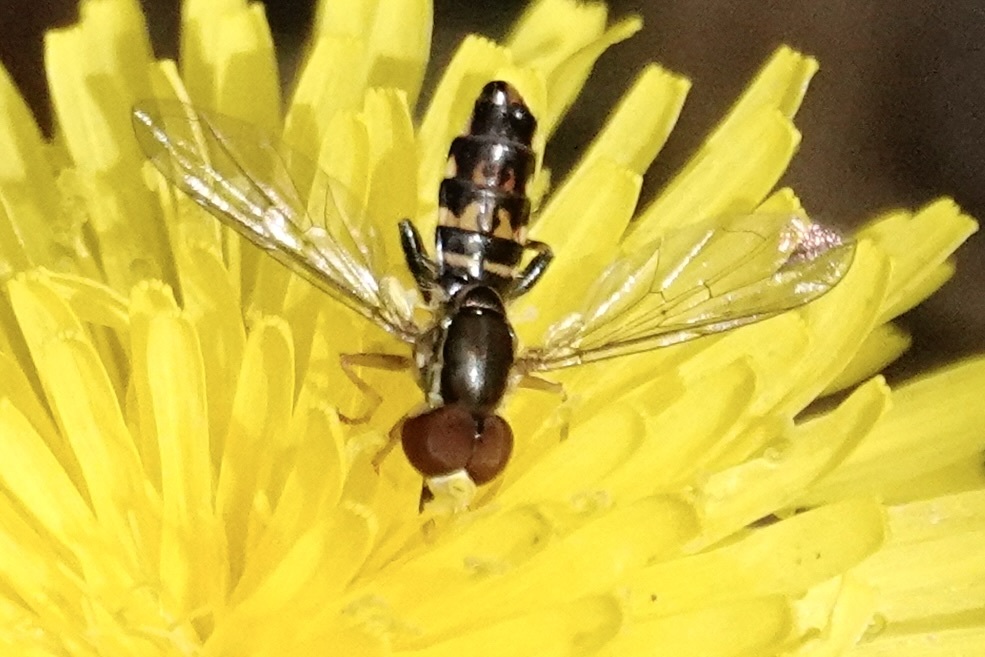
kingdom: Animalia
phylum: Arthropoda
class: Insecta
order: Diptera
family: Syrphidae
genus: Toxomerus
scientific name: Toxomerus geminatus
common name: Eastern calligrapher
